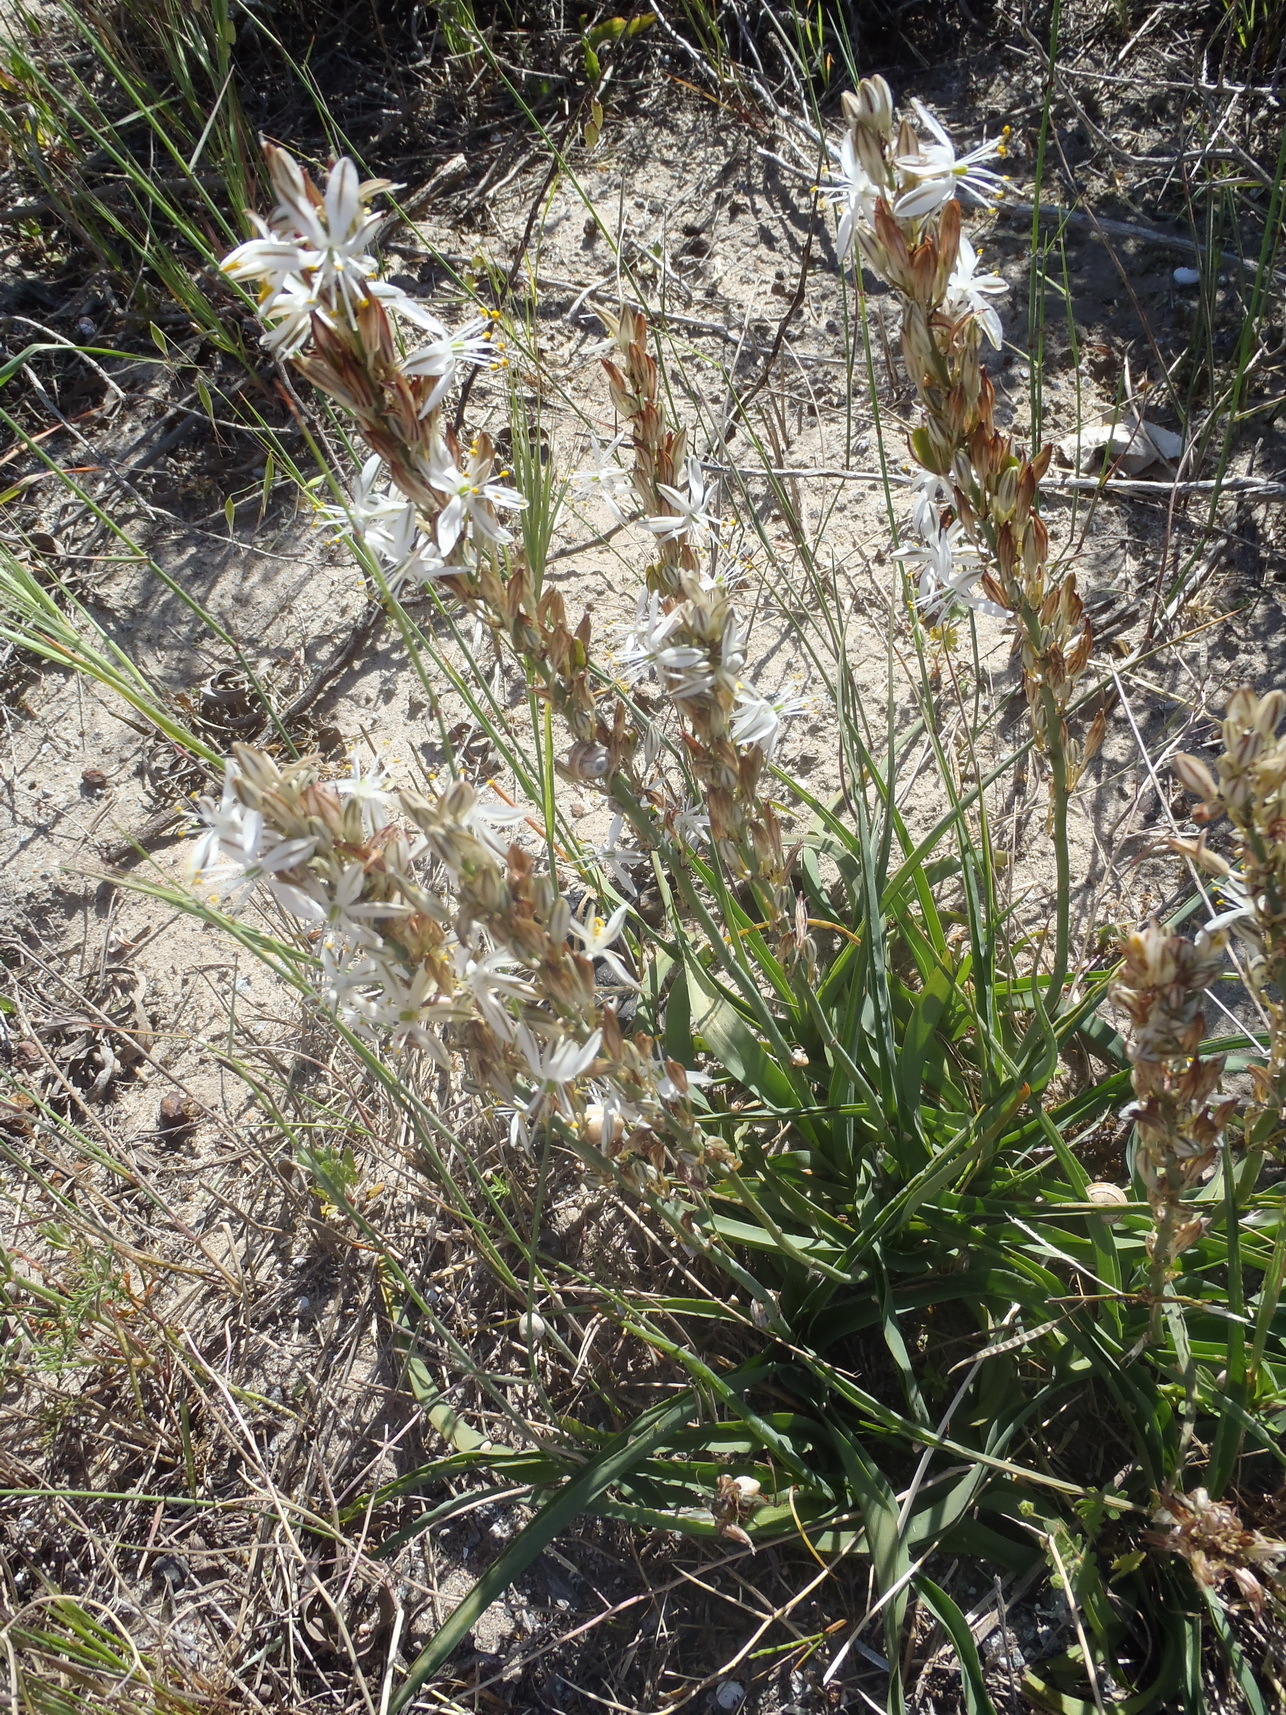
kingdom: Plantae
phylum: Tracheophyta
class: Liliopsida
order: Asparagales
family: Asparagaceae
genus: Chlorophytum
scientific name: Chlorophytum triflorum
